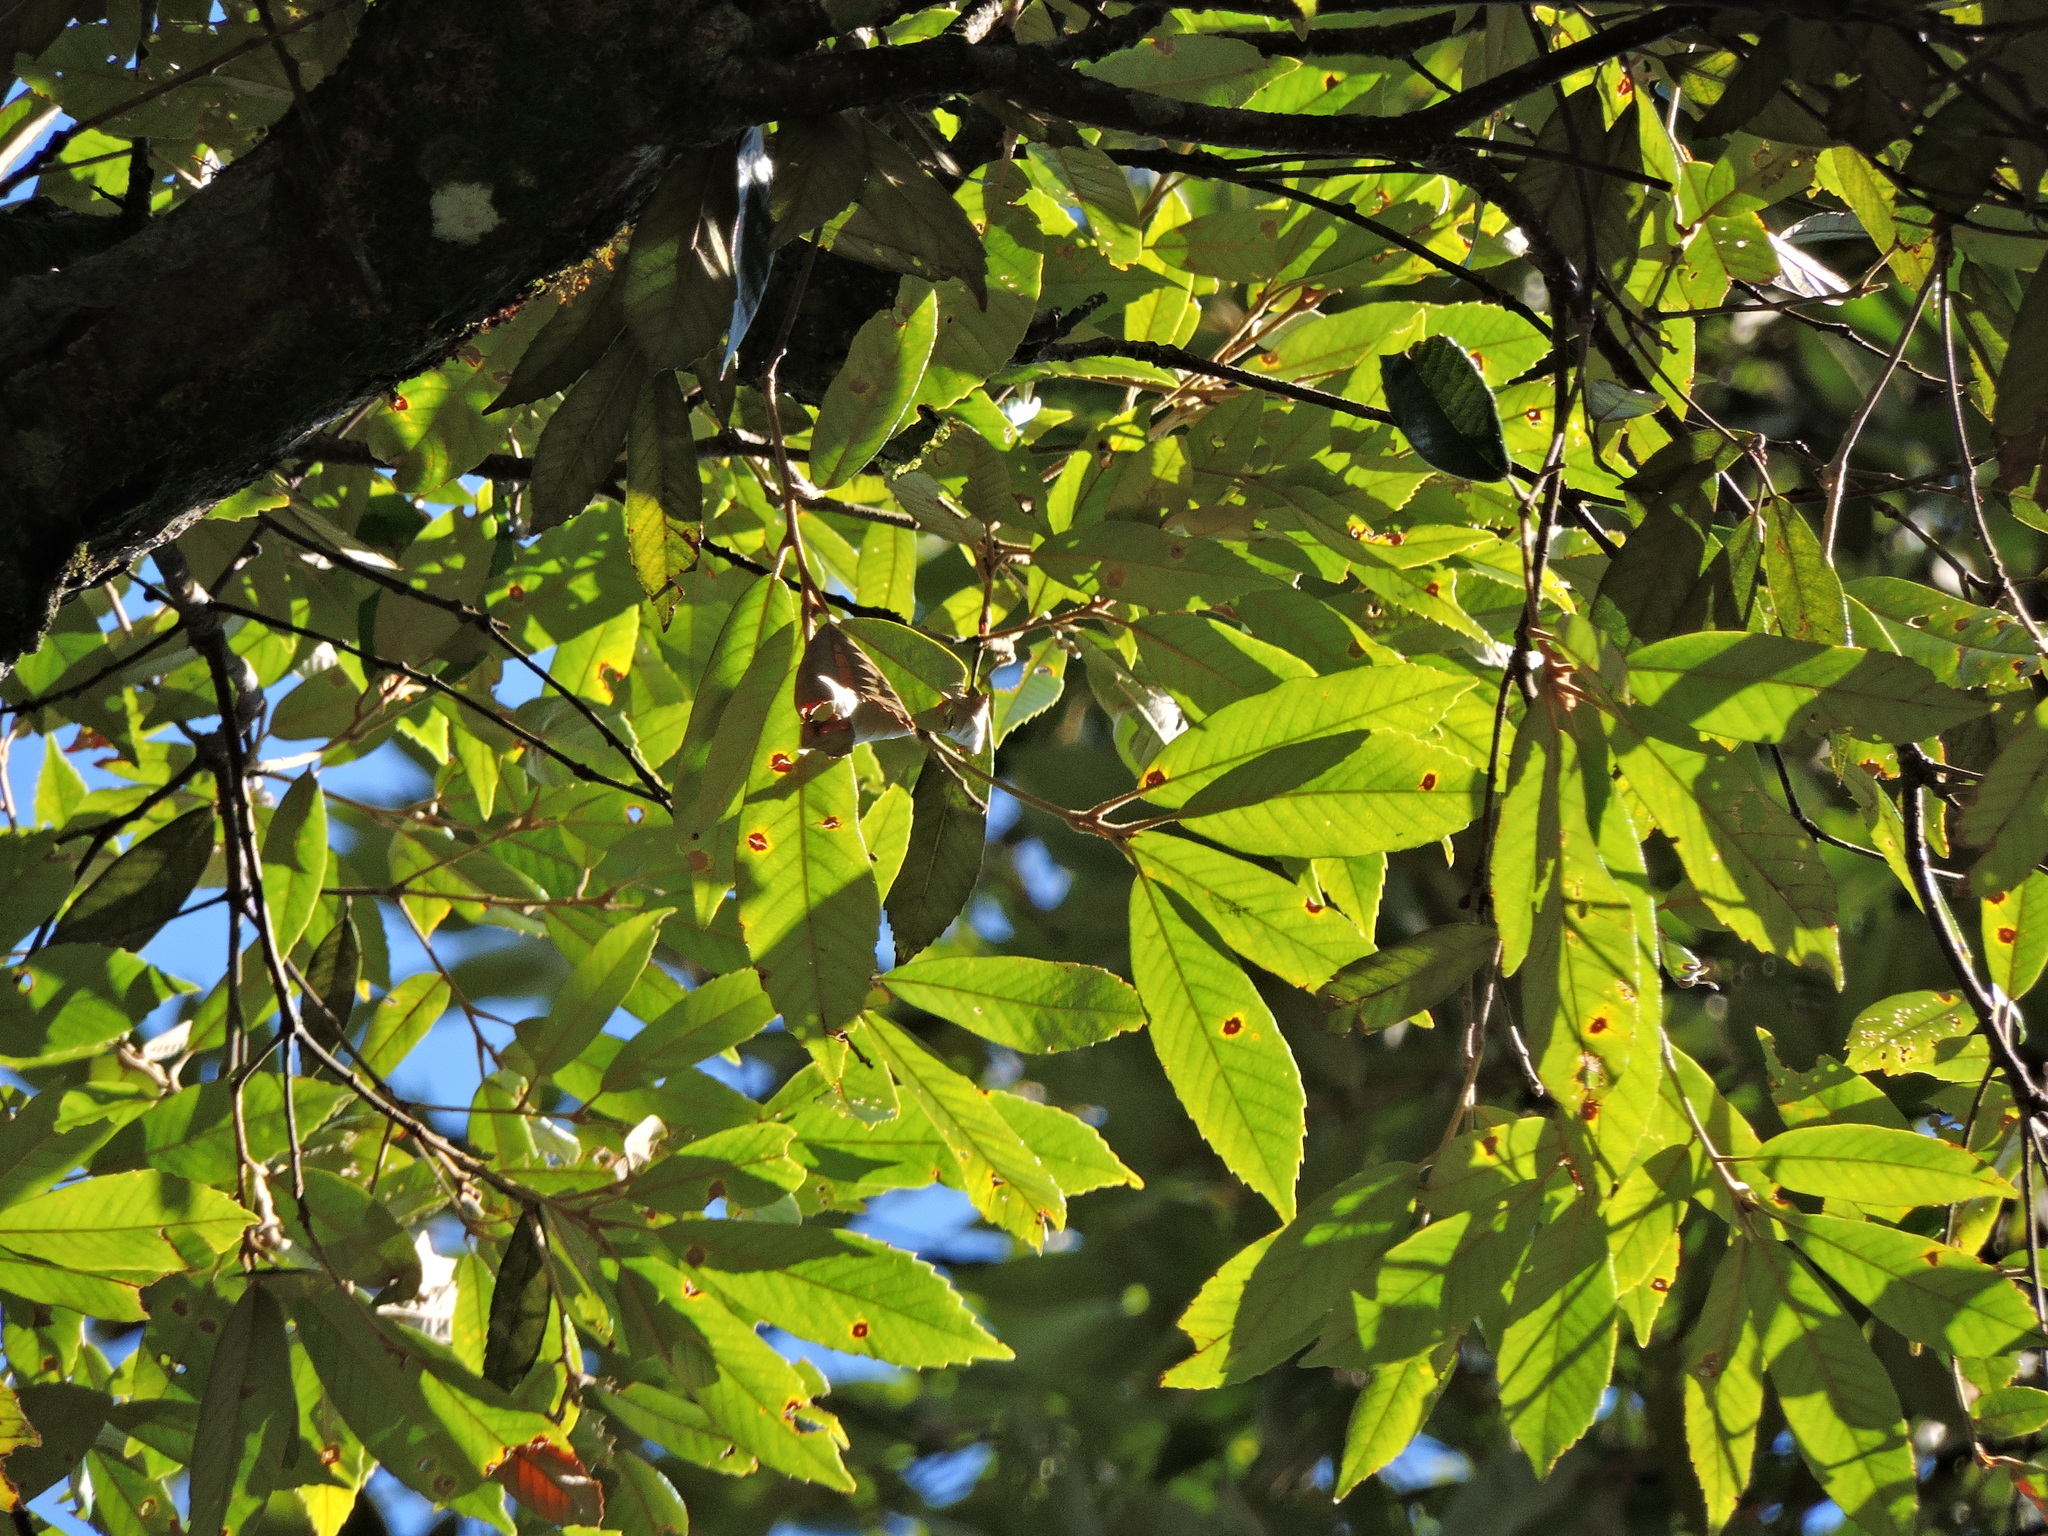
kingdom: Plantae
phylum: Tracheophyta
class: Magnoliopsida
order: Fagales
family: Fagaceae
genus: Quercus
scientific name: Quercus gilva
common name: Redbark oak
